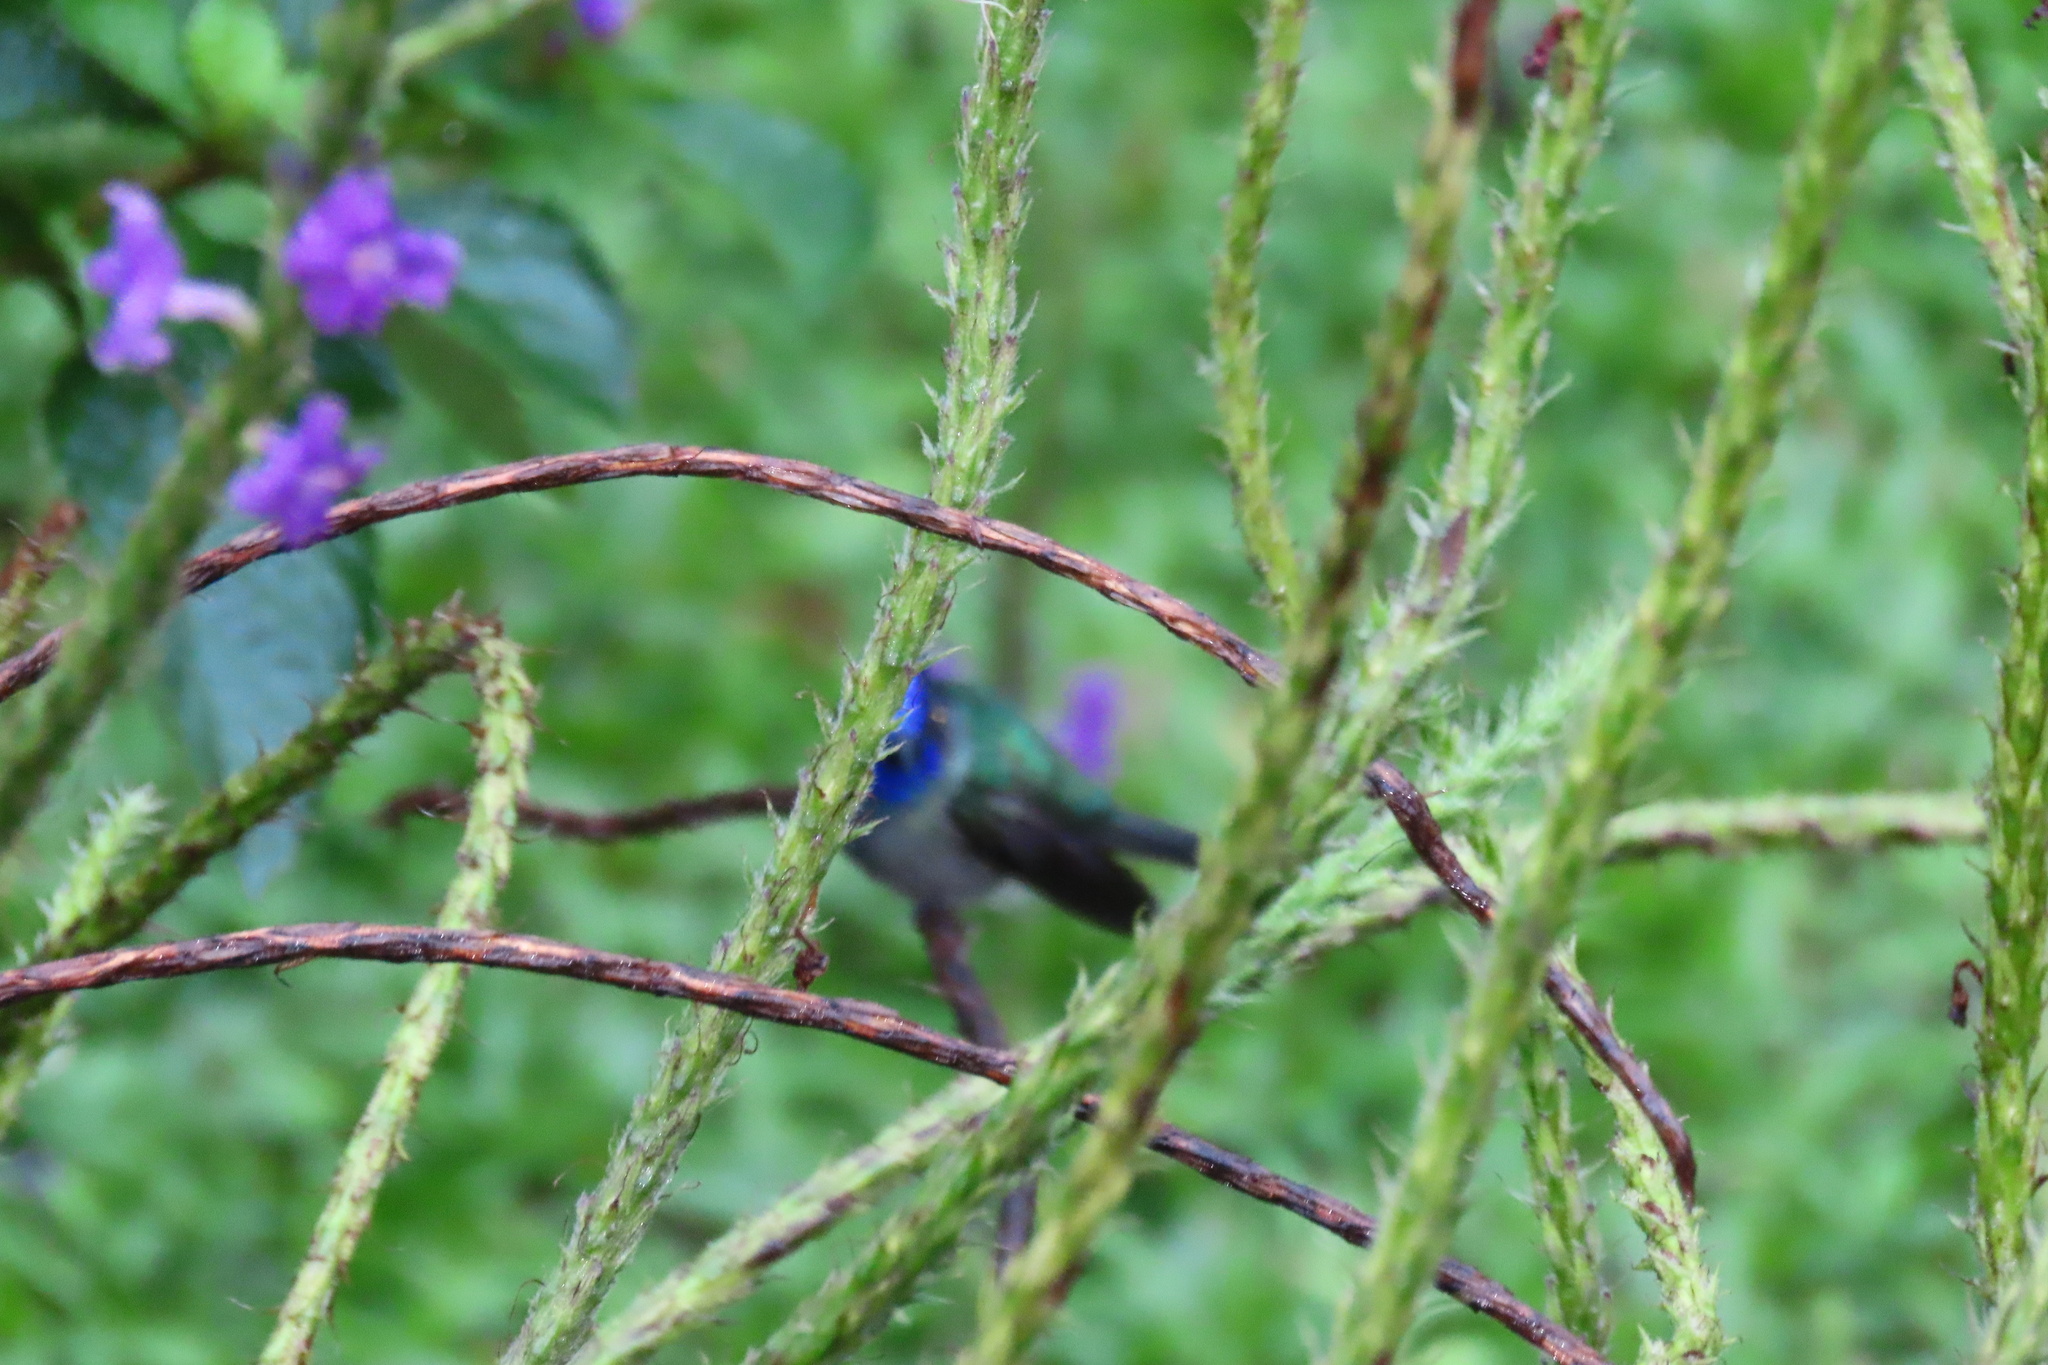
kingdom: Animalia
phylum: Chordata
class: Aves
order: Apodiformes
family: Trochilidae
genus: Klais
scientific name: Klais guimeti
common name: Violet-headed hummingbird
